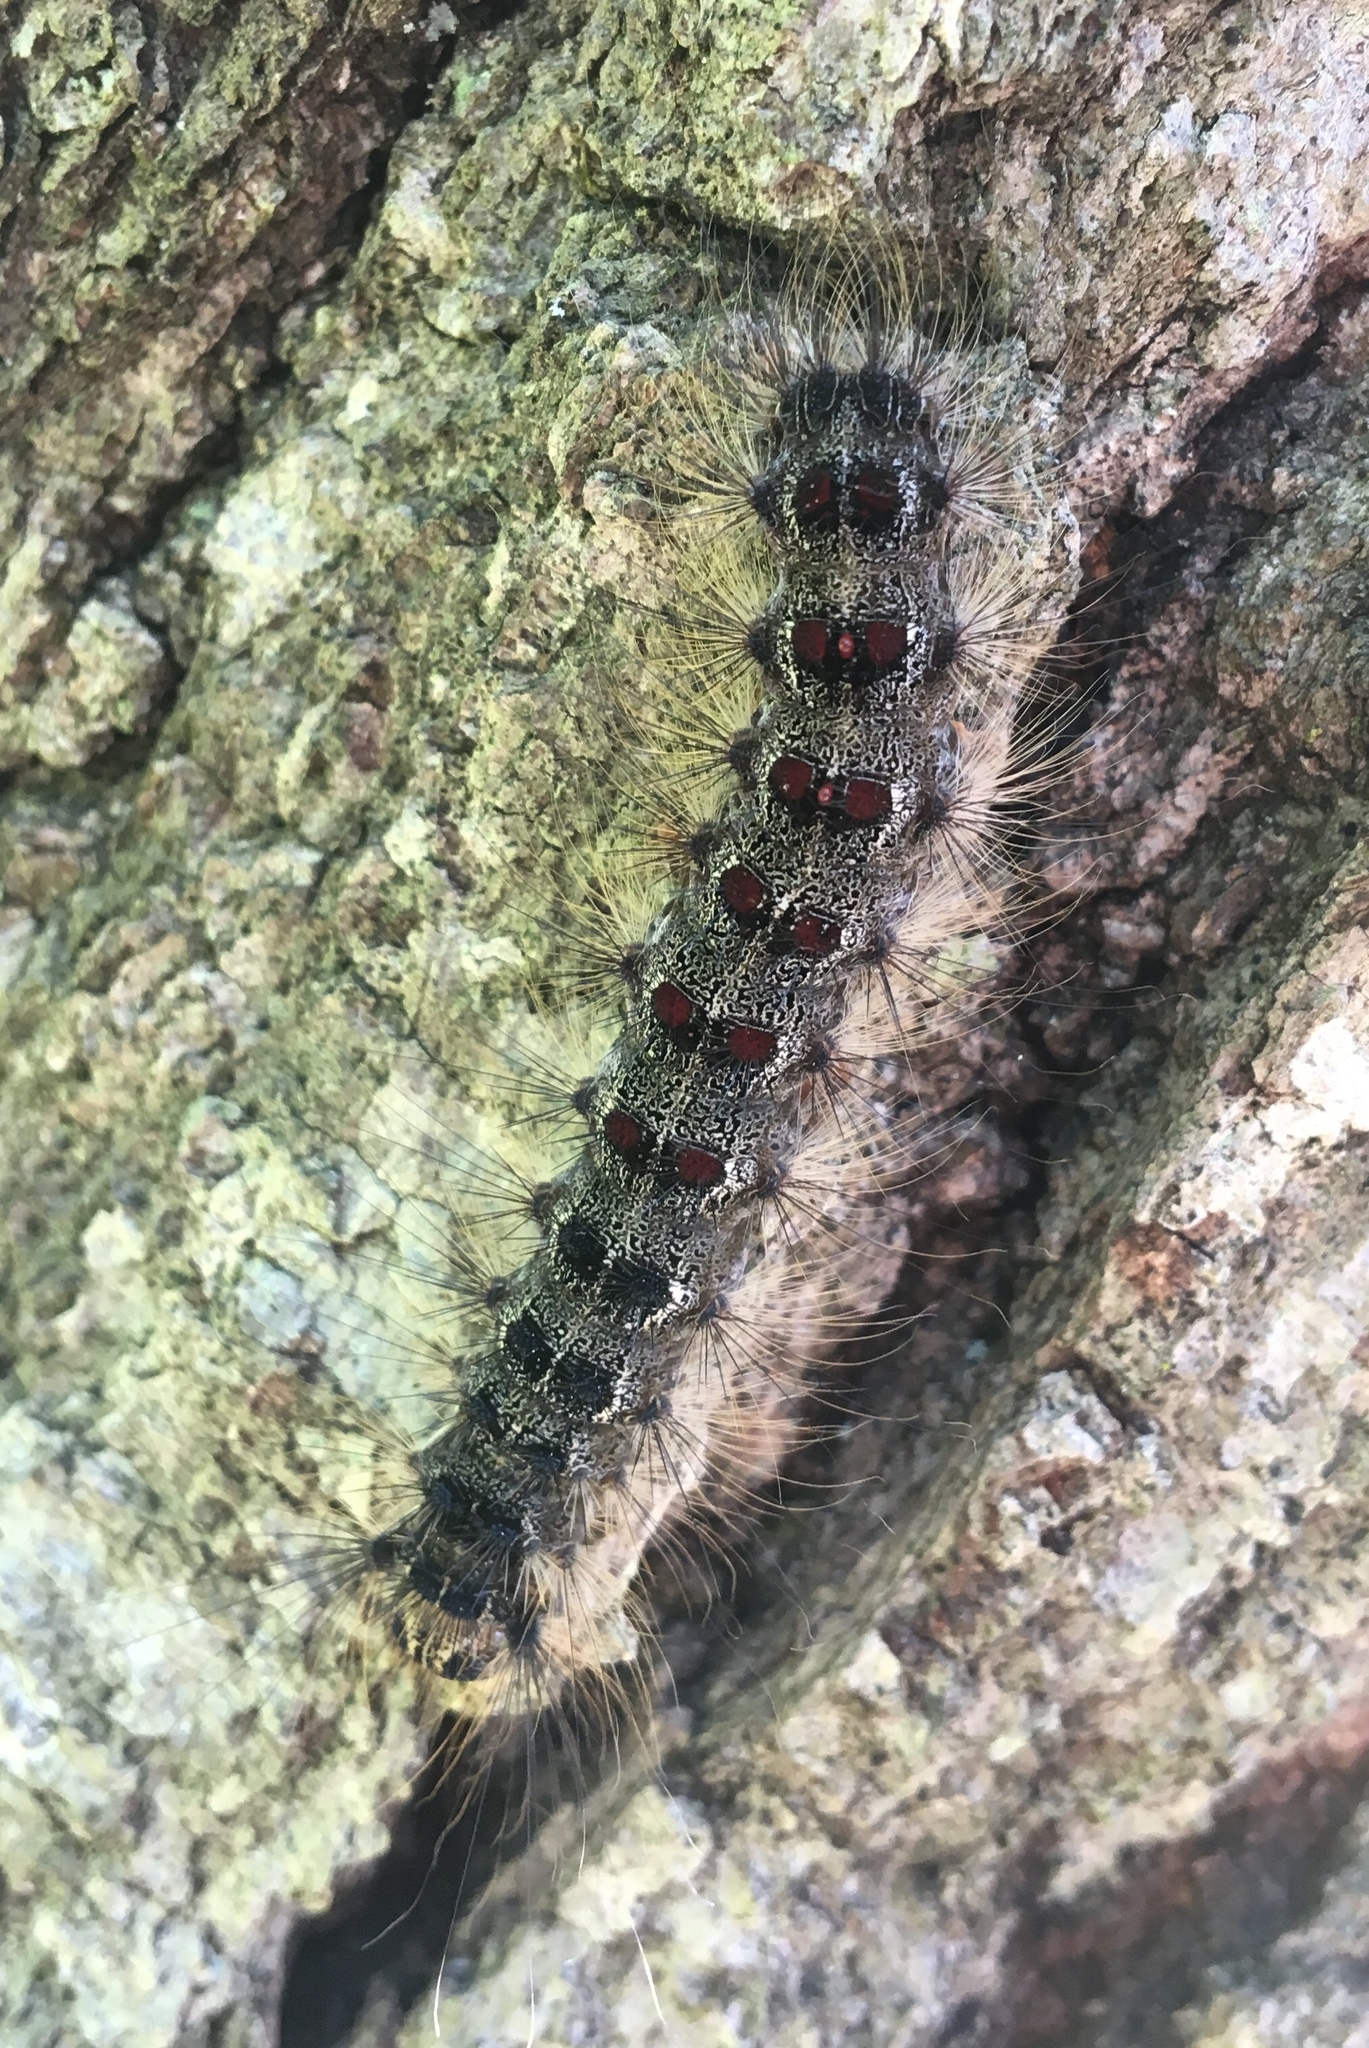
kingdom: Animalia
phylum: Arthropoda
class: Insecta
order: Lepidoptera
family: Erebidae
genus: Lymantria
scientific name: Lymantria dispar
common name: Gypsy moth
